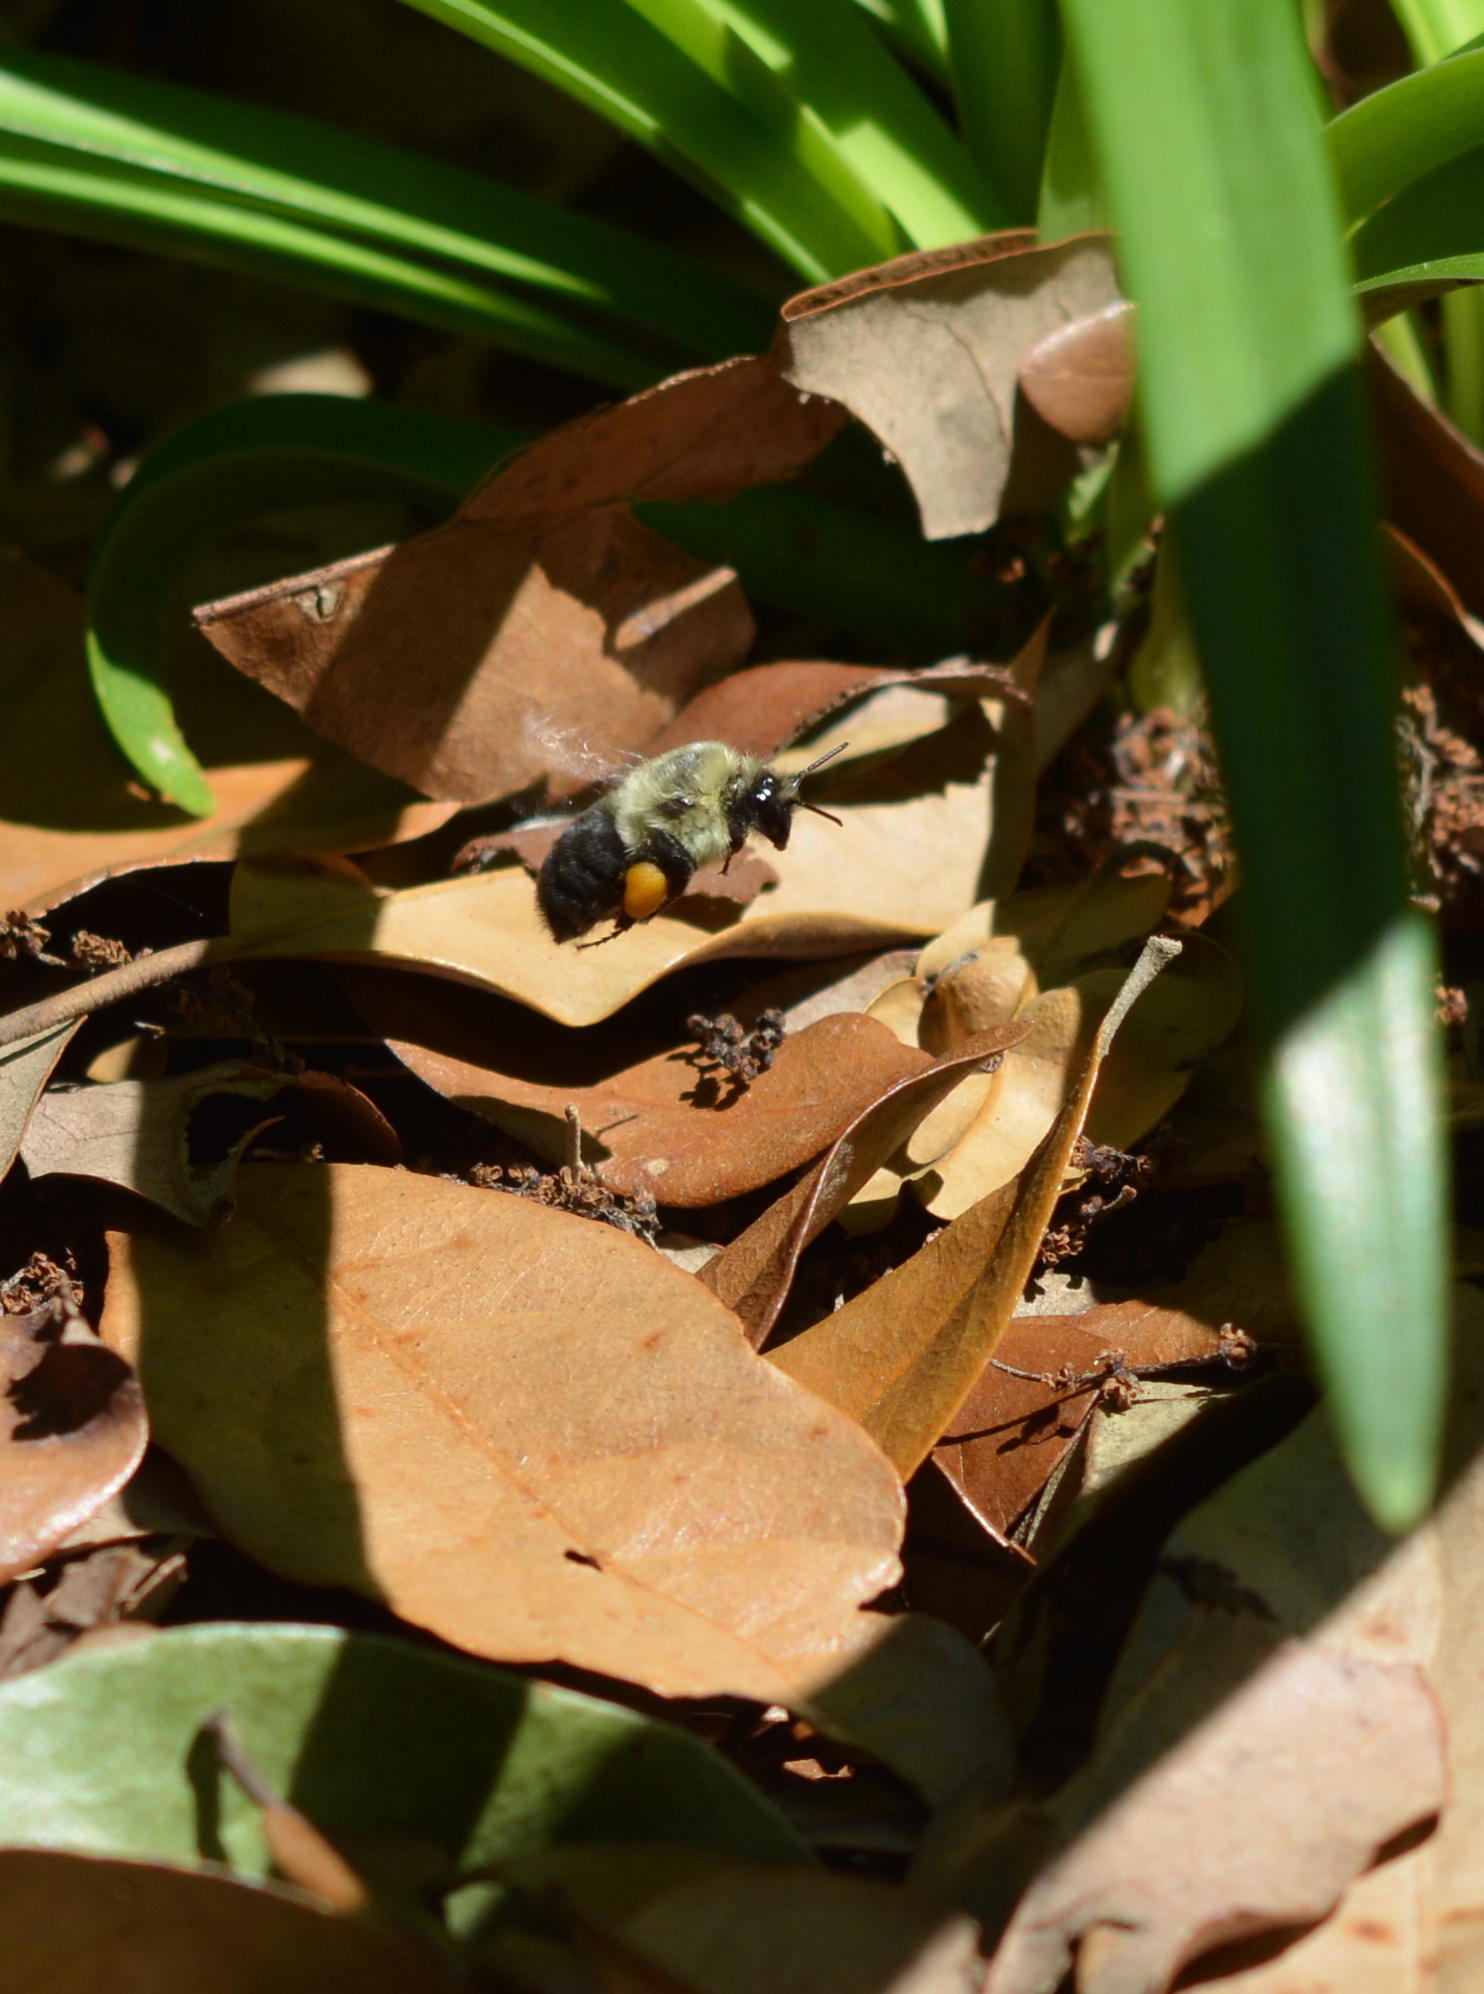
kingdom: Animalia
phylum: Arthropoda
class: Insecta
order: Hymenoptera
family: Apidae
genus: Bombus
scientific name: Bombus impatiens
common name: Common eastern bumble bee
